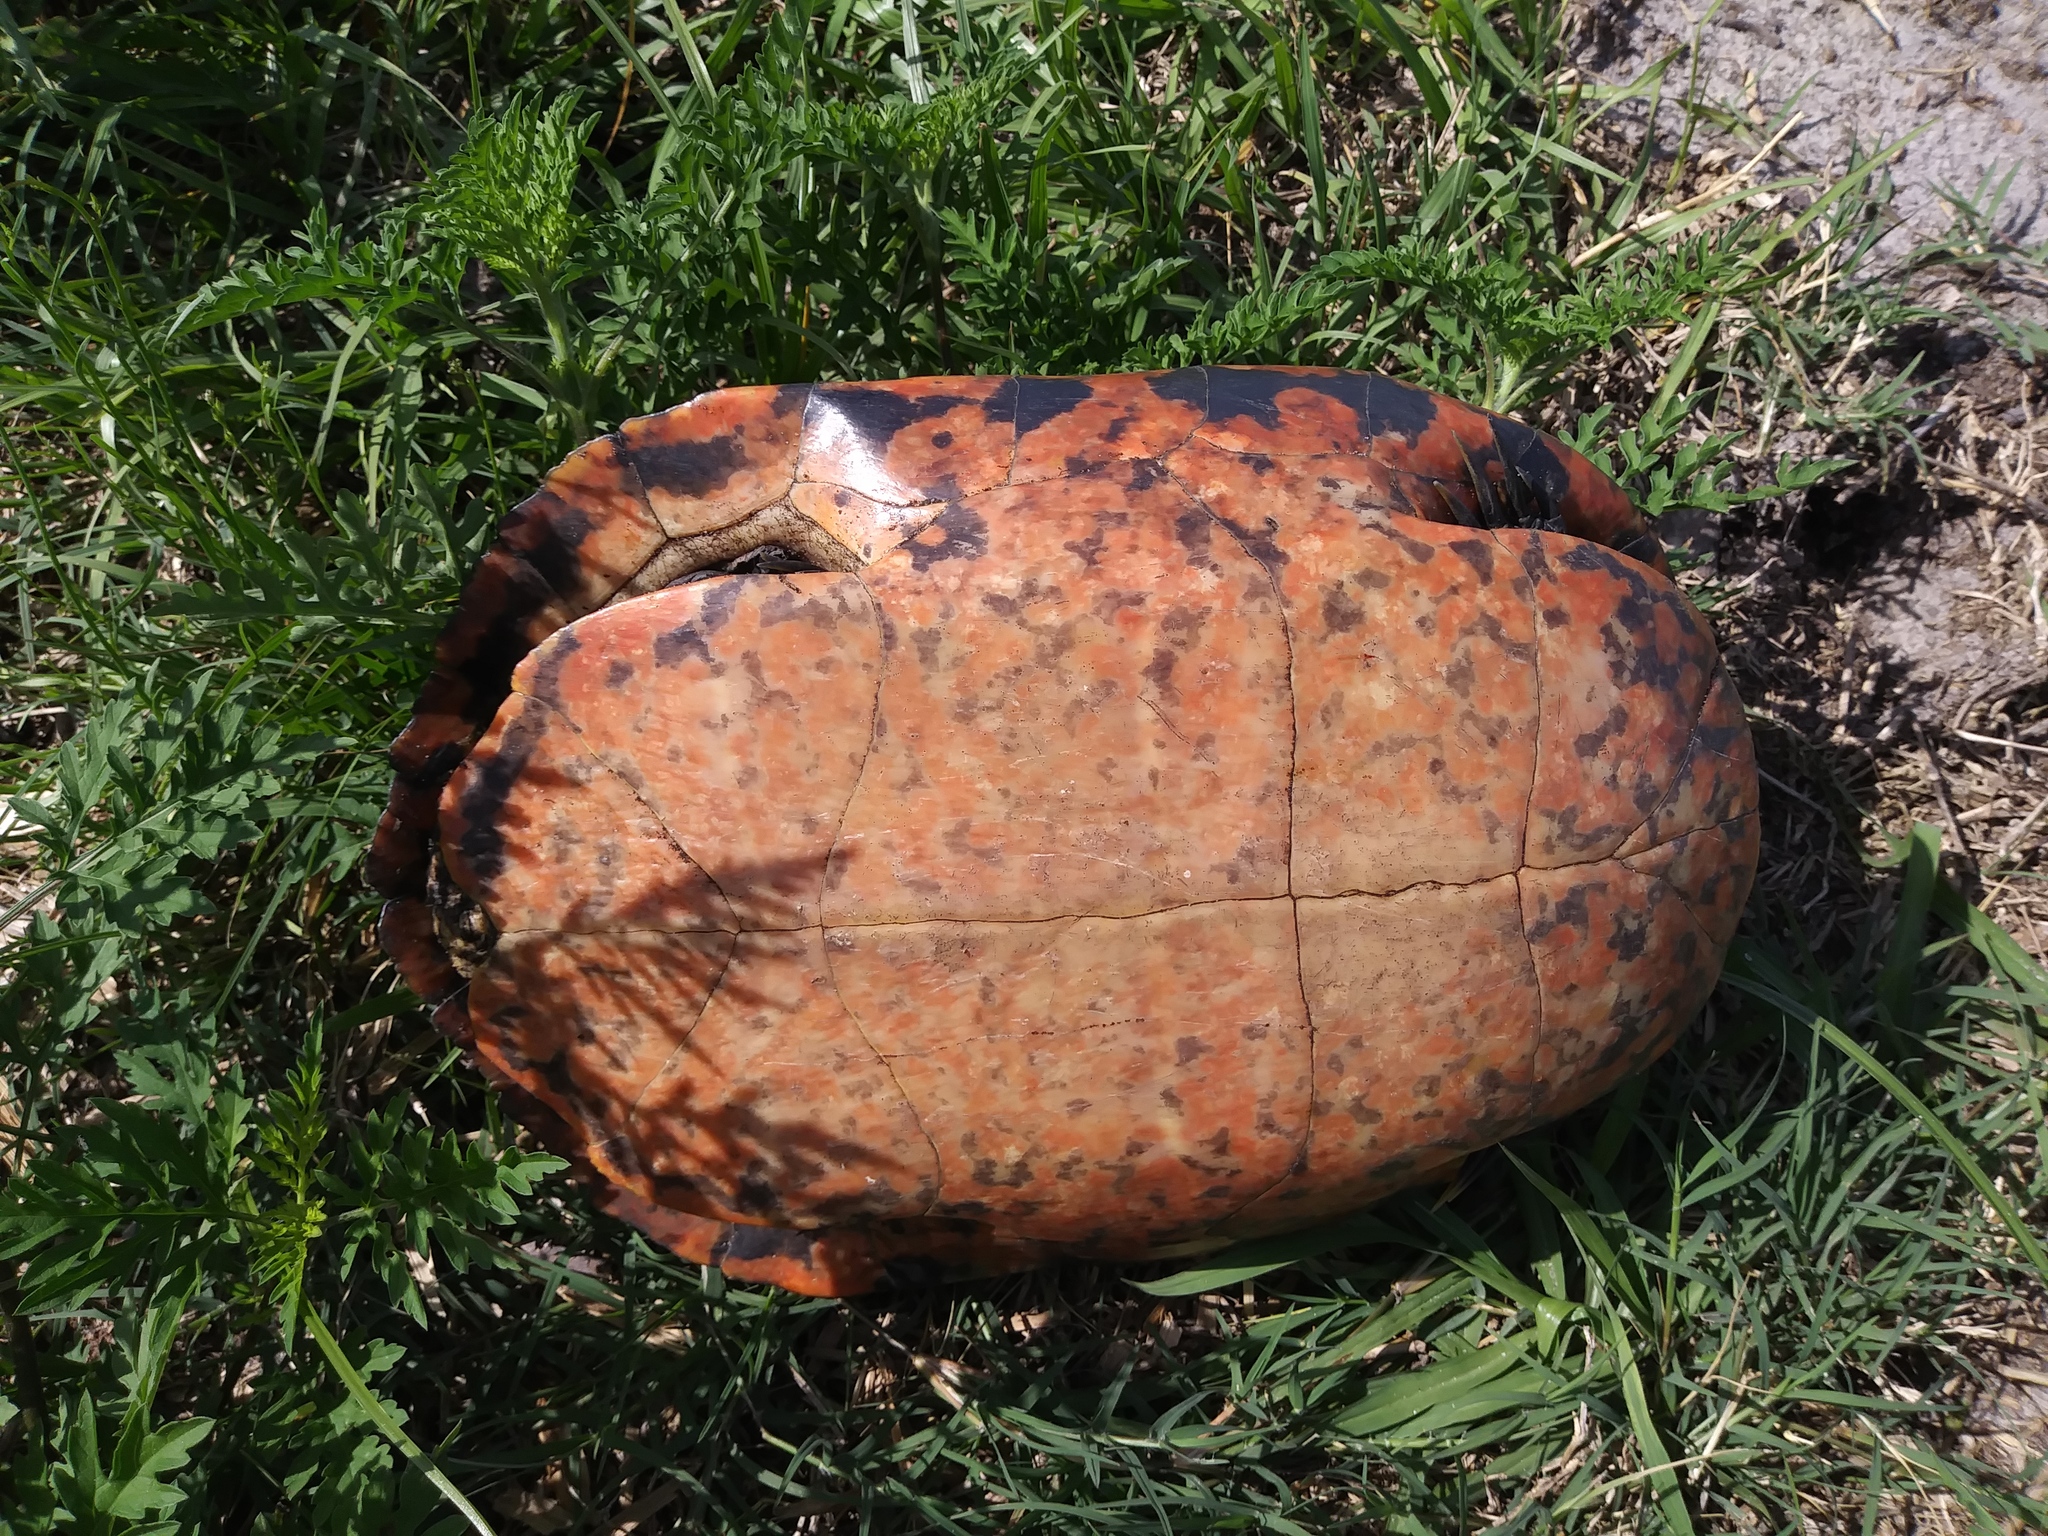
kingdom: Animalia
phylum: Chordata
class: Testudines
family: Emydidae
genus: Pseudemys
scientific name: Pseudemys nelsoni
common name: Florida red-bellied turtle
